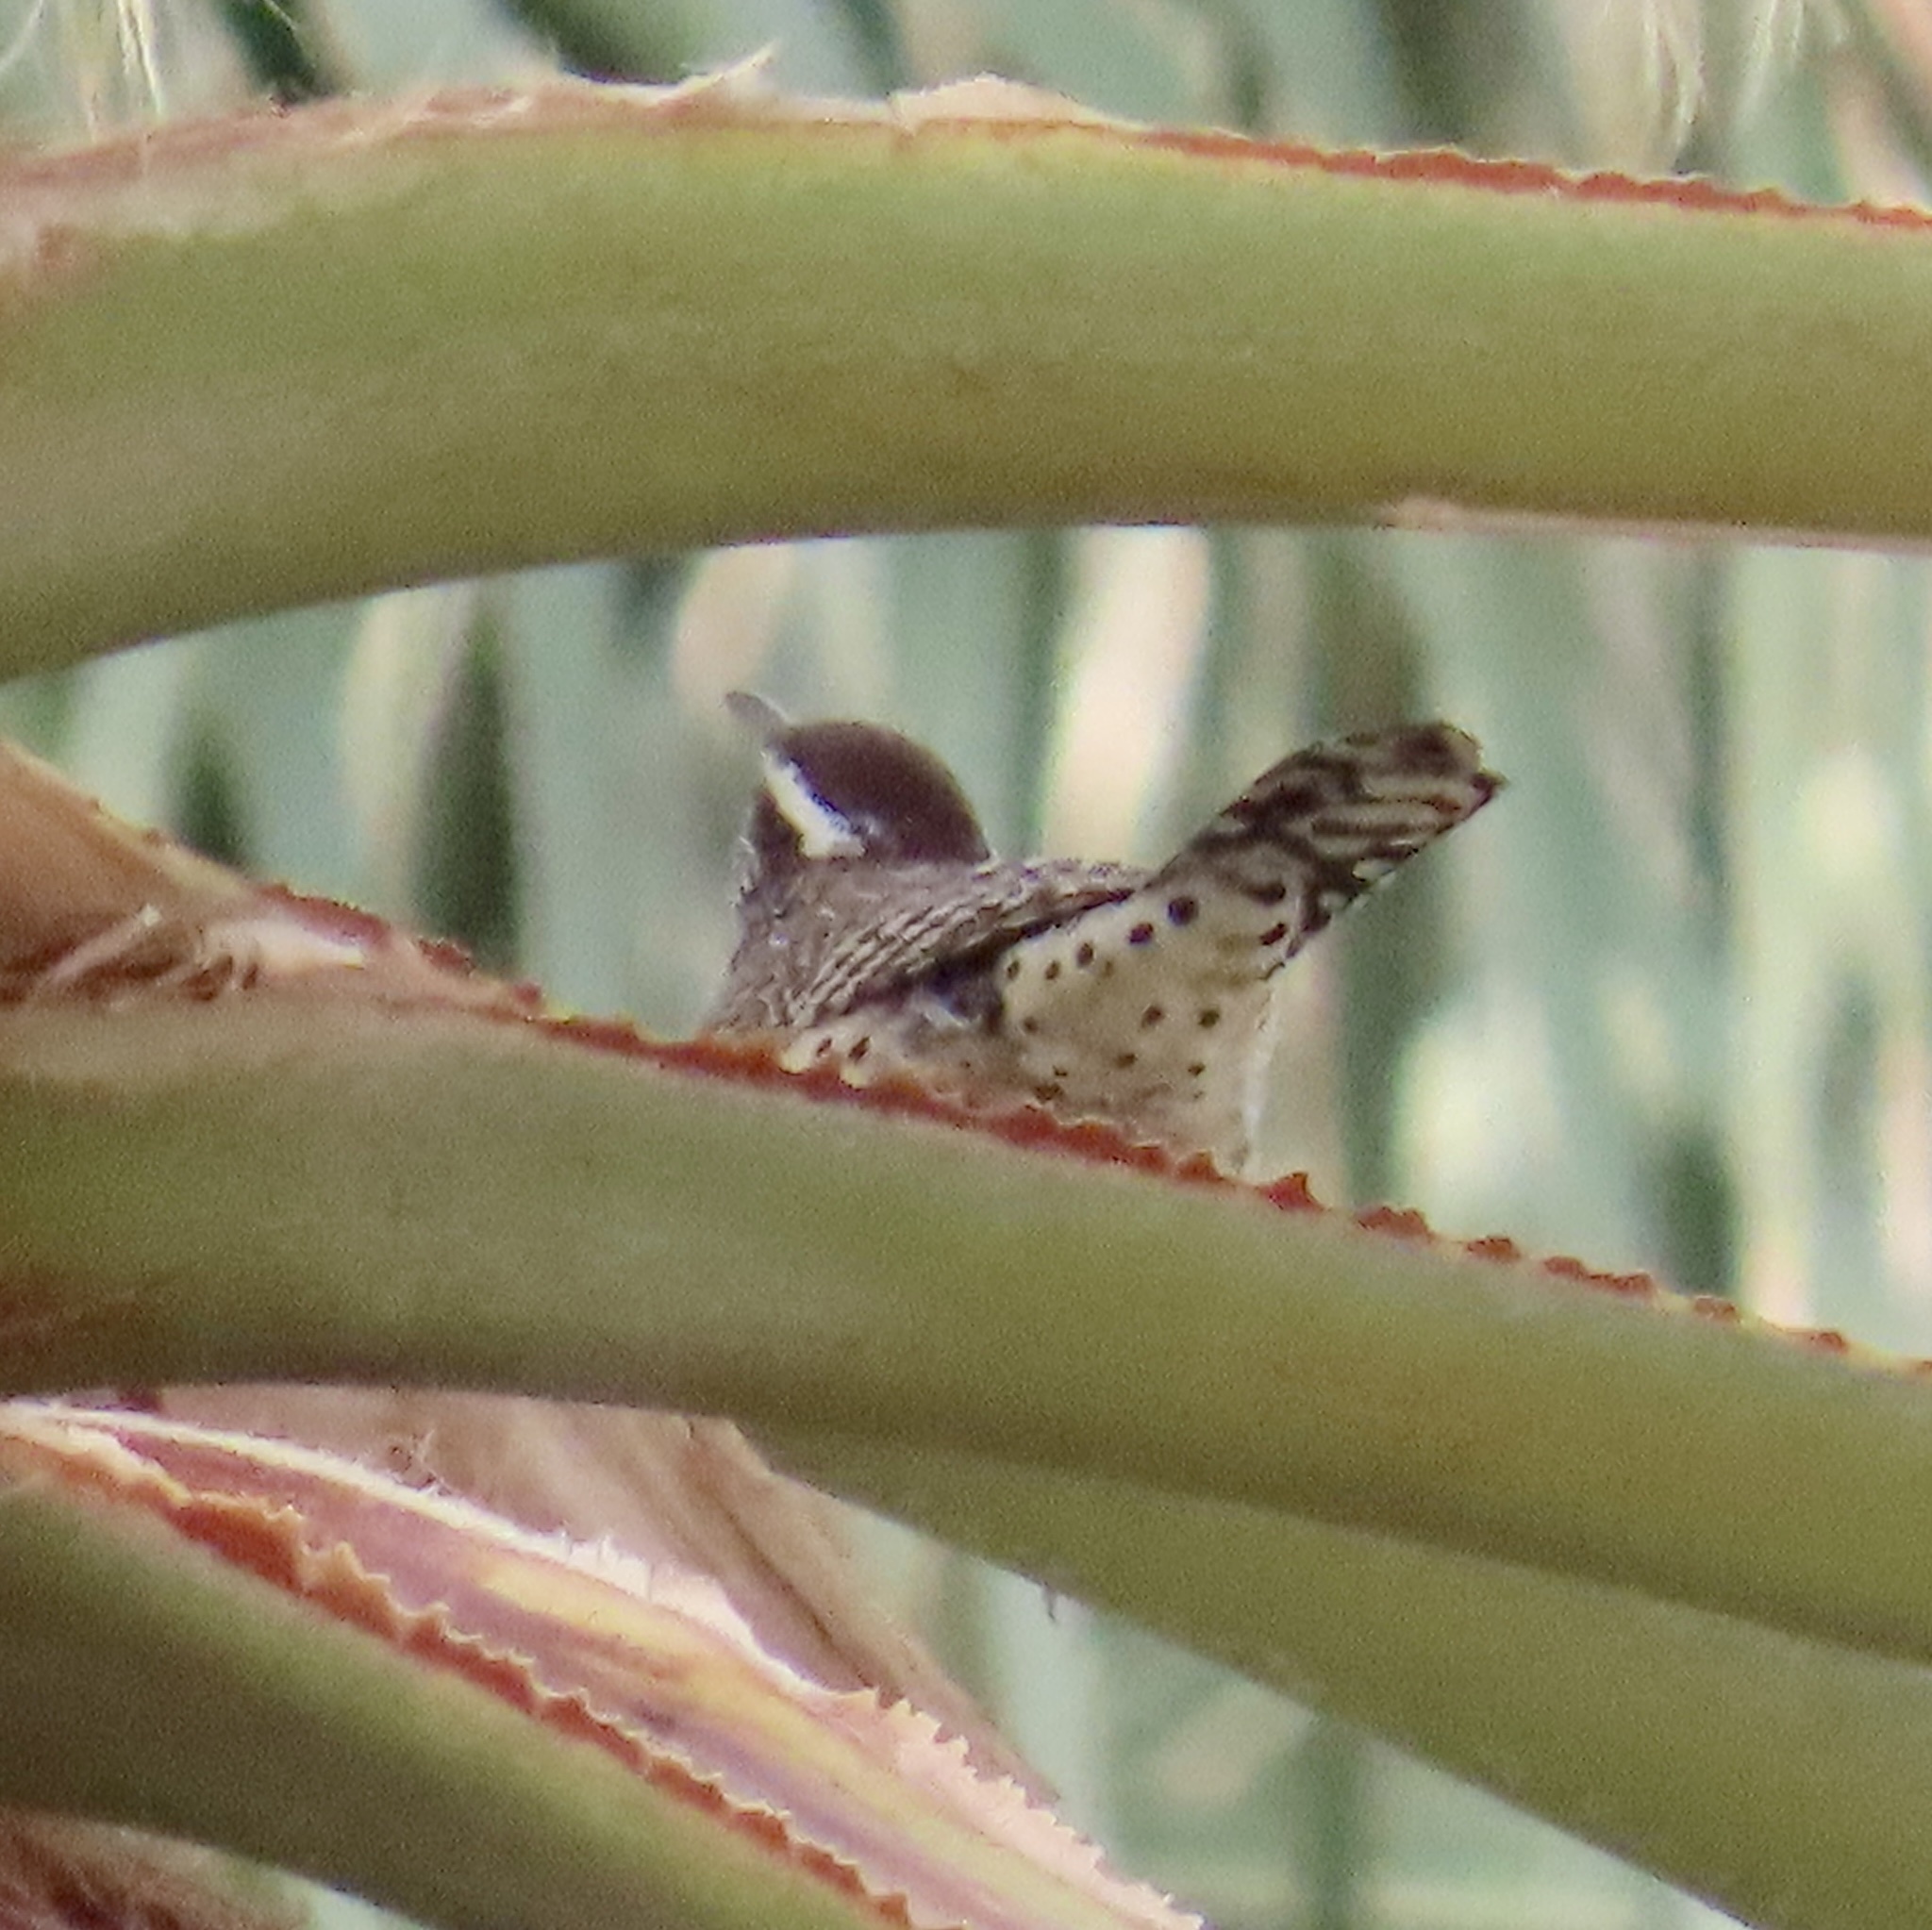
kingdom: Animalia
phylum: Chordata
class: Aves
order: Passeriformes
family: Troglodytidae
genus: Campylorhynchus
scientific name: Campylorhynchus brunneicapillus
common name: Cactus wren
